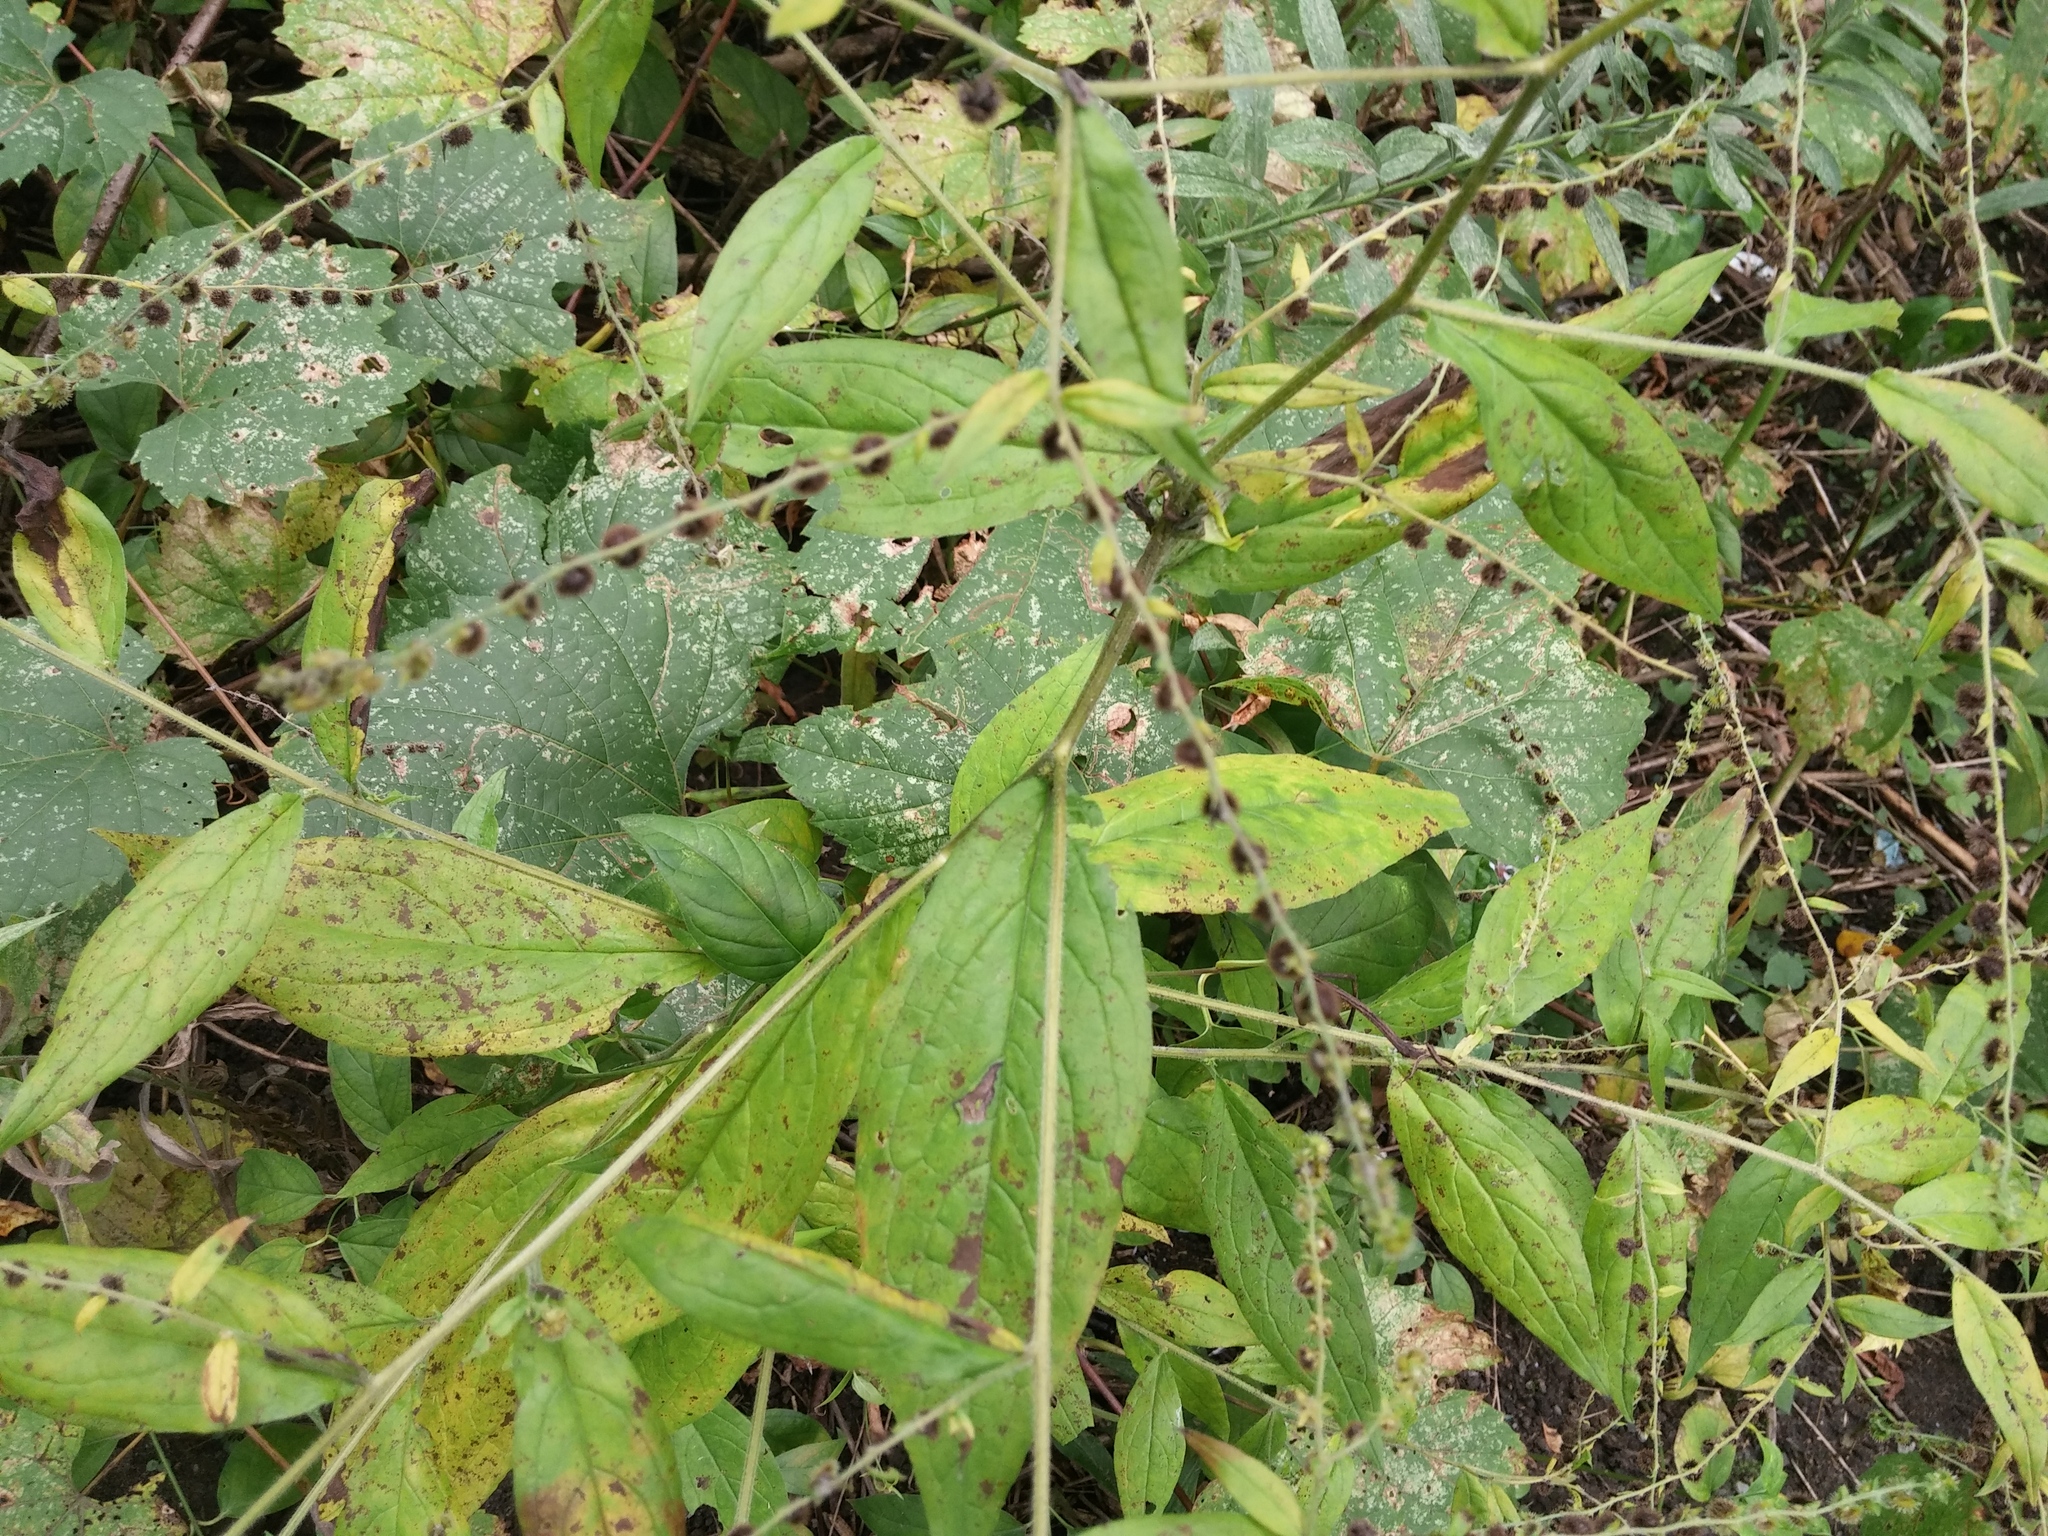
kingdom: Plantae
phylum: Tracheophyta
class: Magnoliopsida
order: Boraginales
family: Boraginaceae
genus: Hackelia
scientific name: Hackelia virginiana
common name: Beggar's-lice
